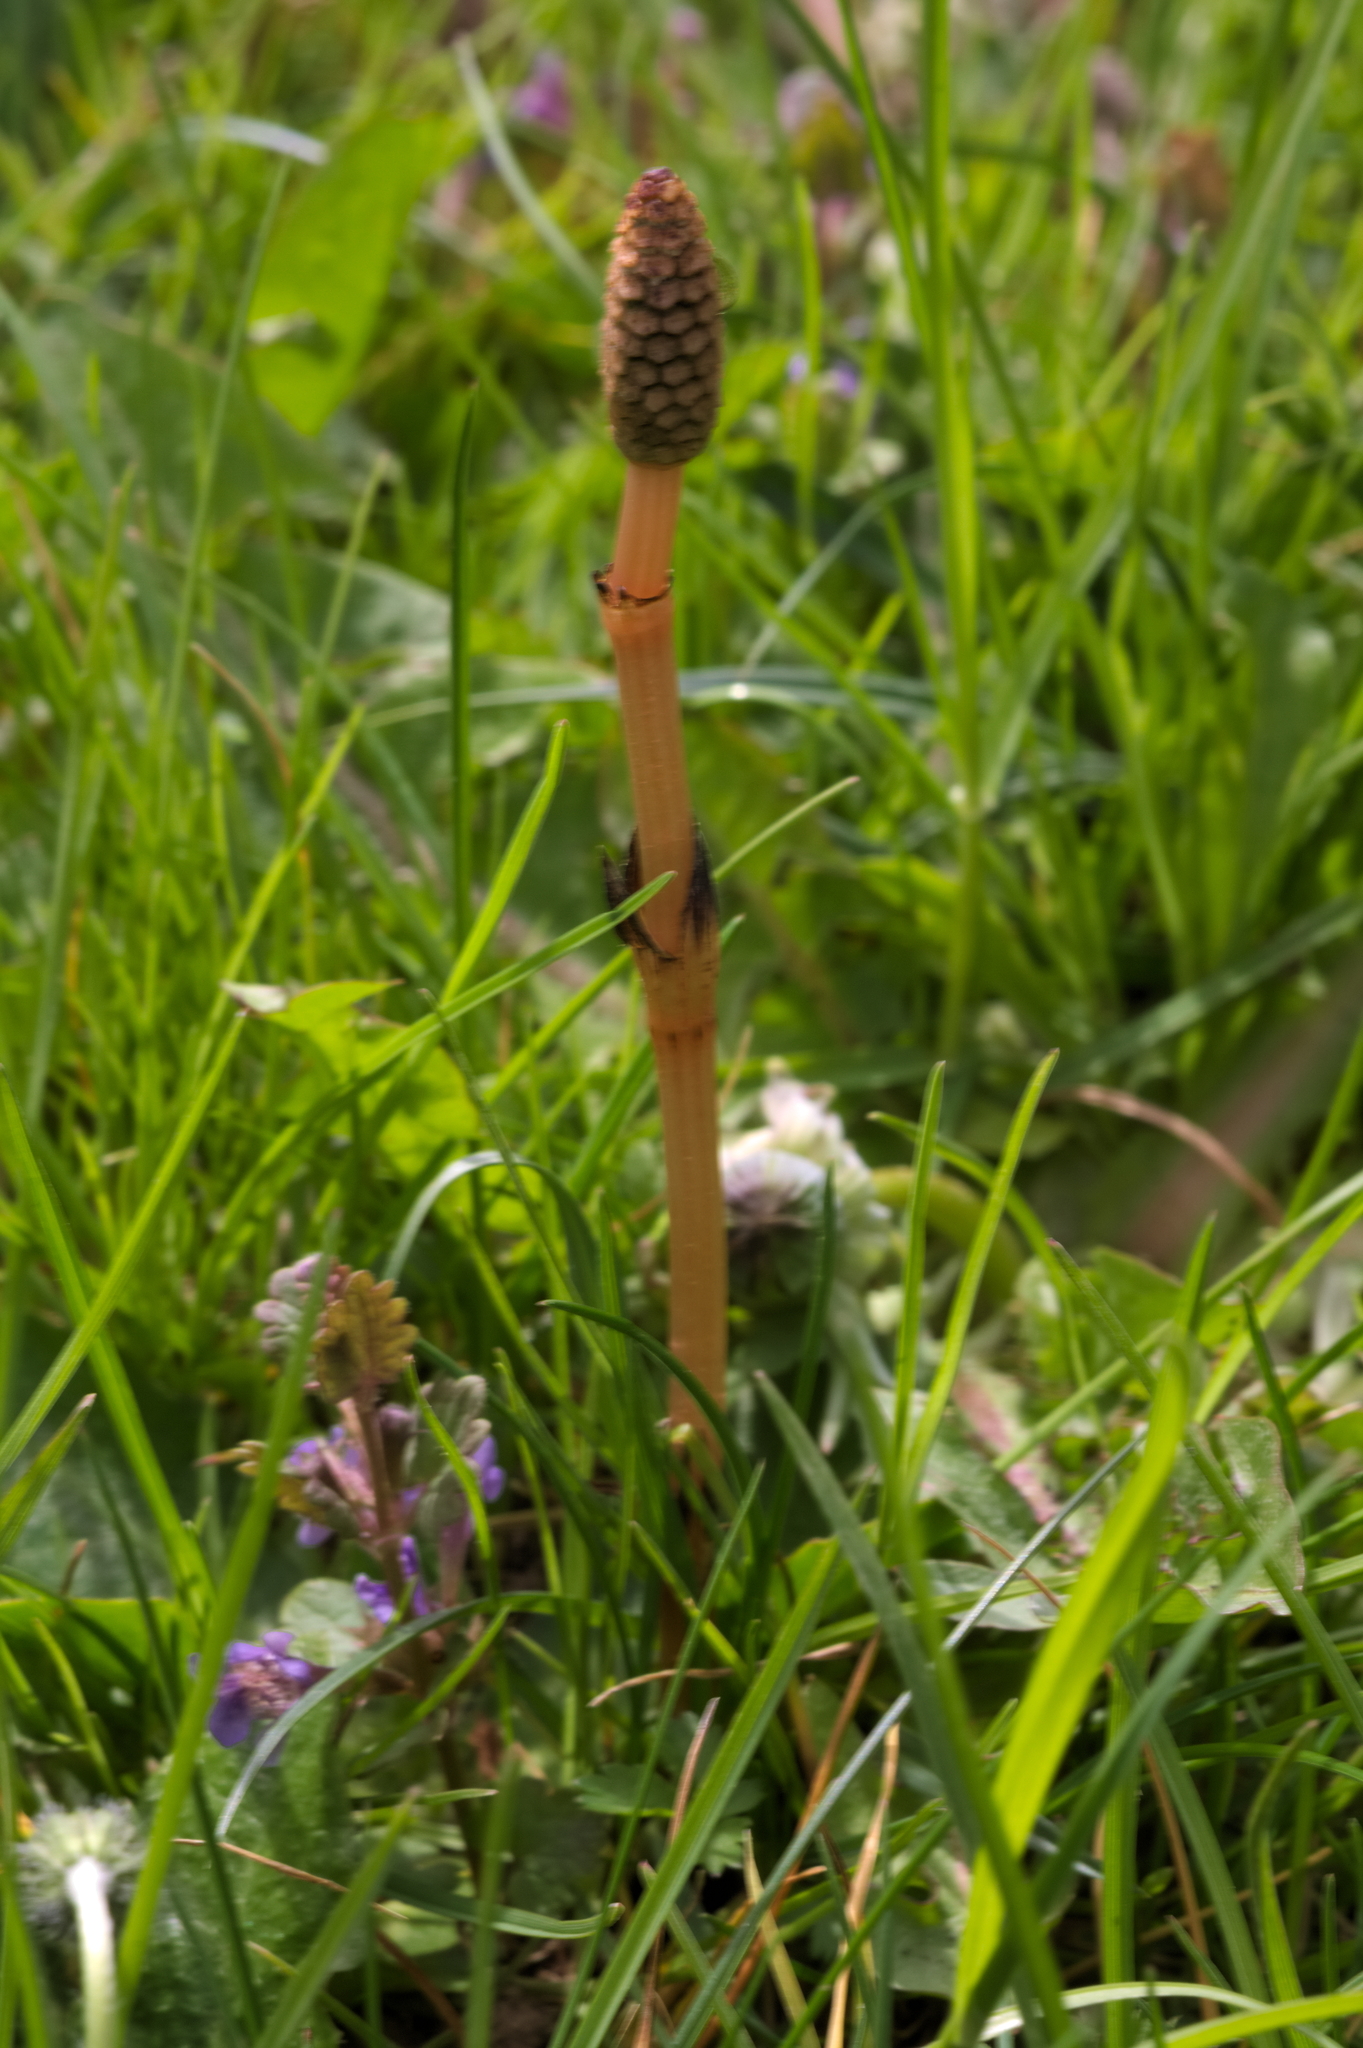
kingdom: Plantae
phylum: Tracheophyta
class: Polypodiopsida
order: Equisetales
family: Equisetaceae
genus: Equisetum
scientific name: Equisetum arvense
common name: Field horsetail
